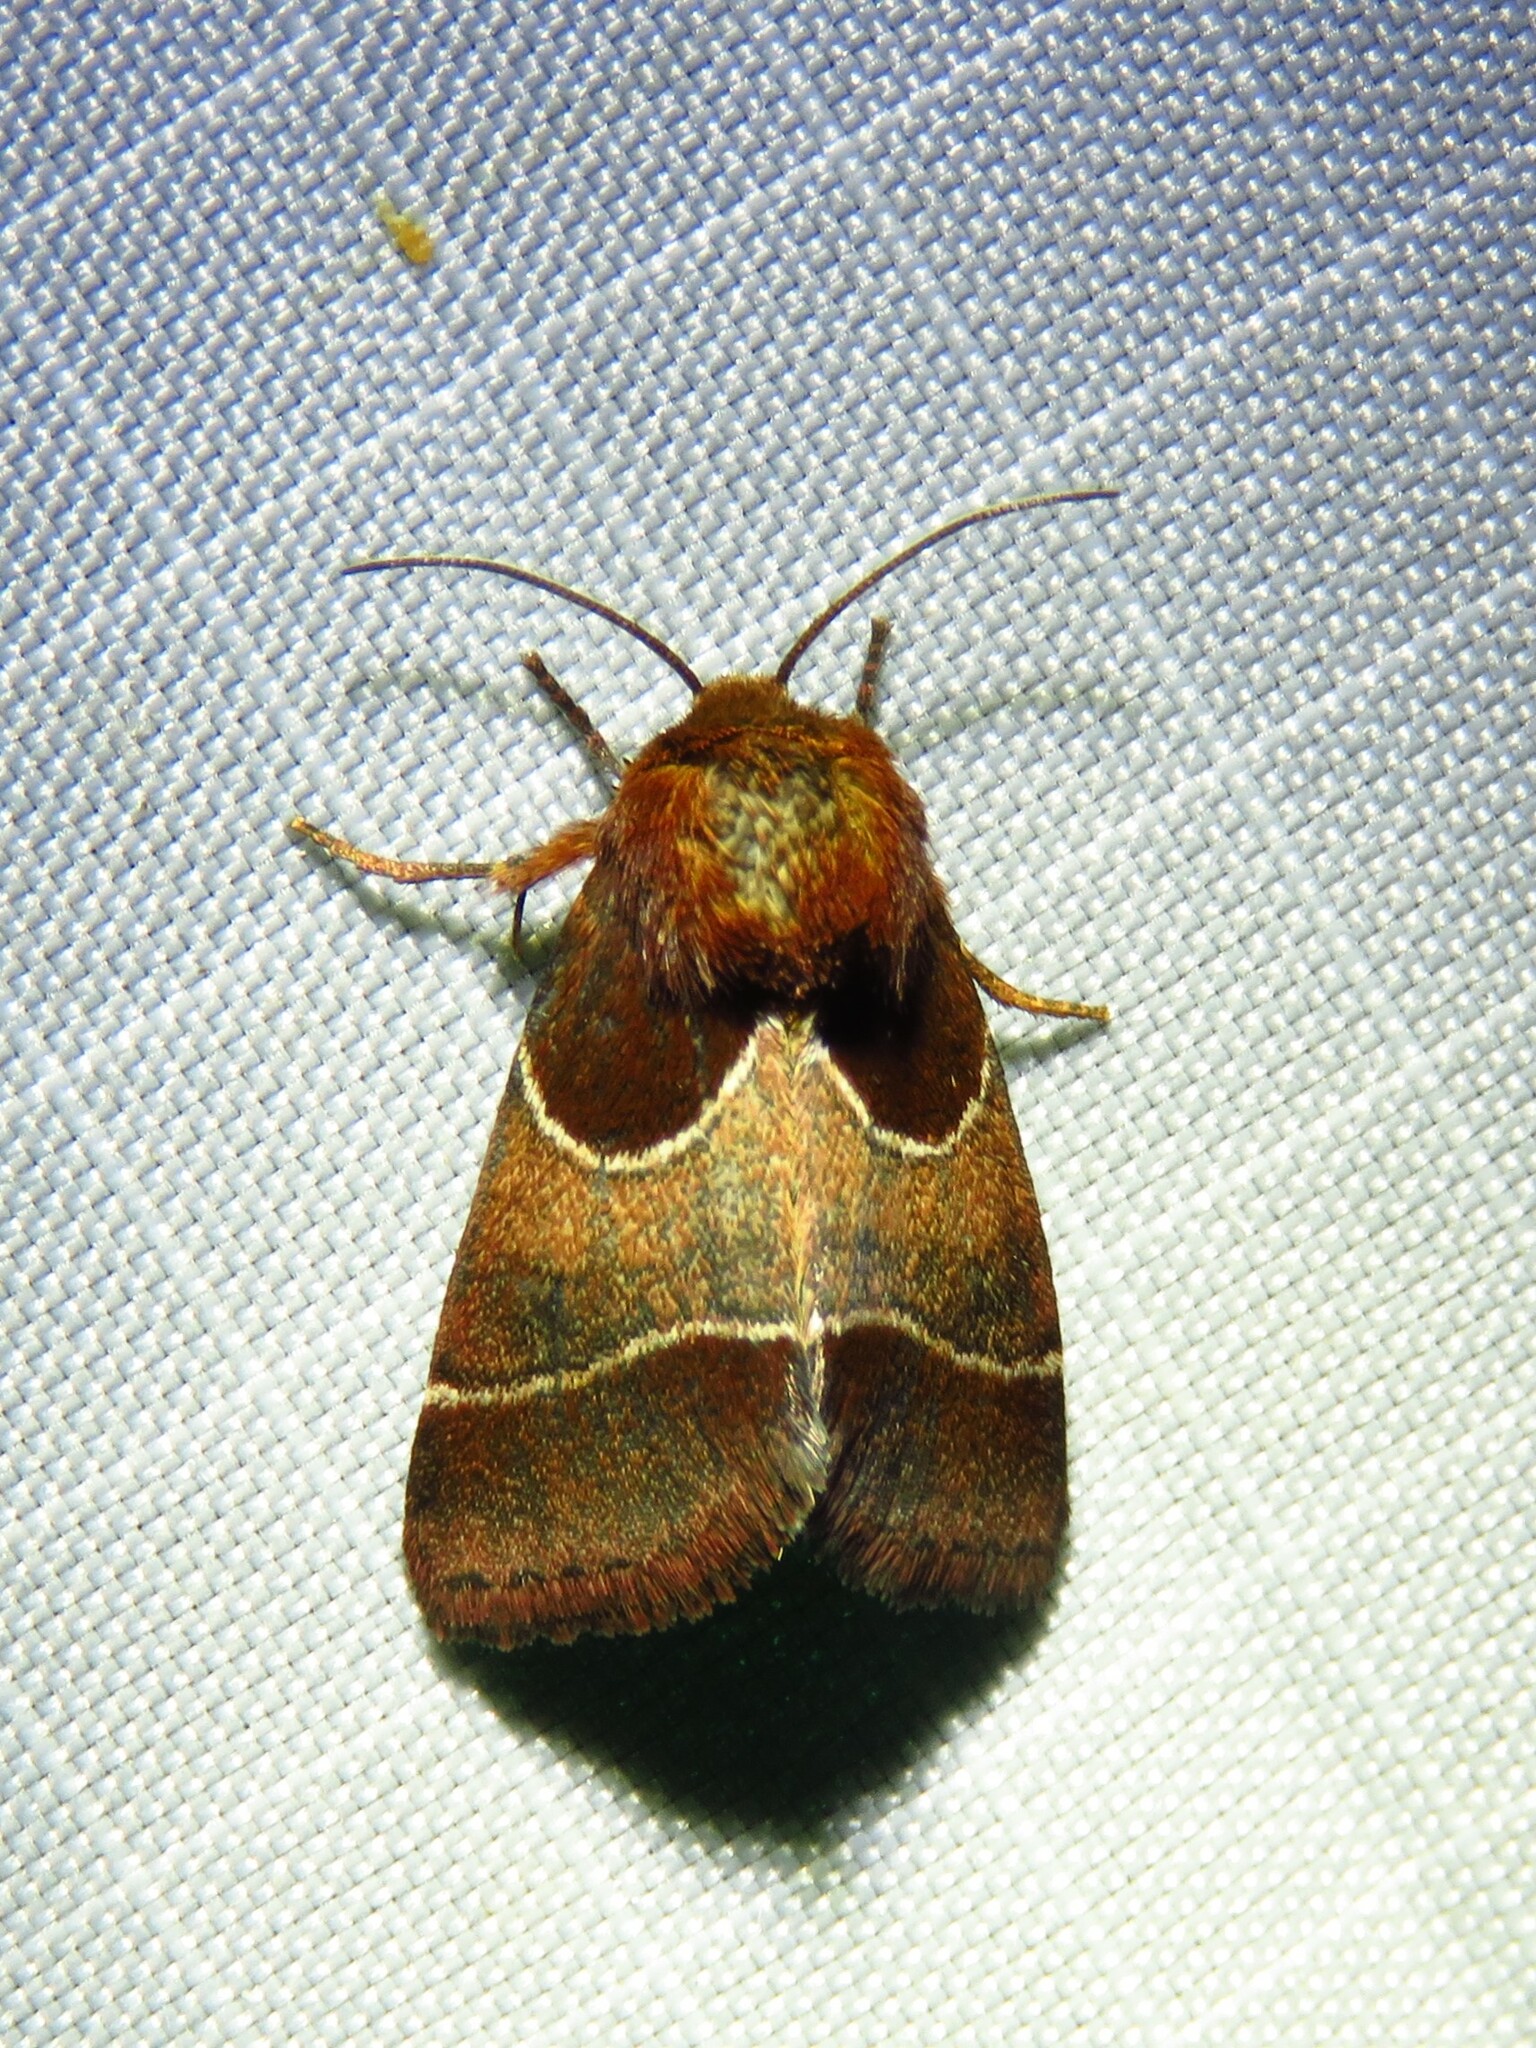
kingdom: Animalia
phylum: Arthropoda
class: Insecta
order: Lepidoptera
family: Noctuidae
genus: Schinia
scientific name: Schinia arcigera
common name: Arcigera flower moth
